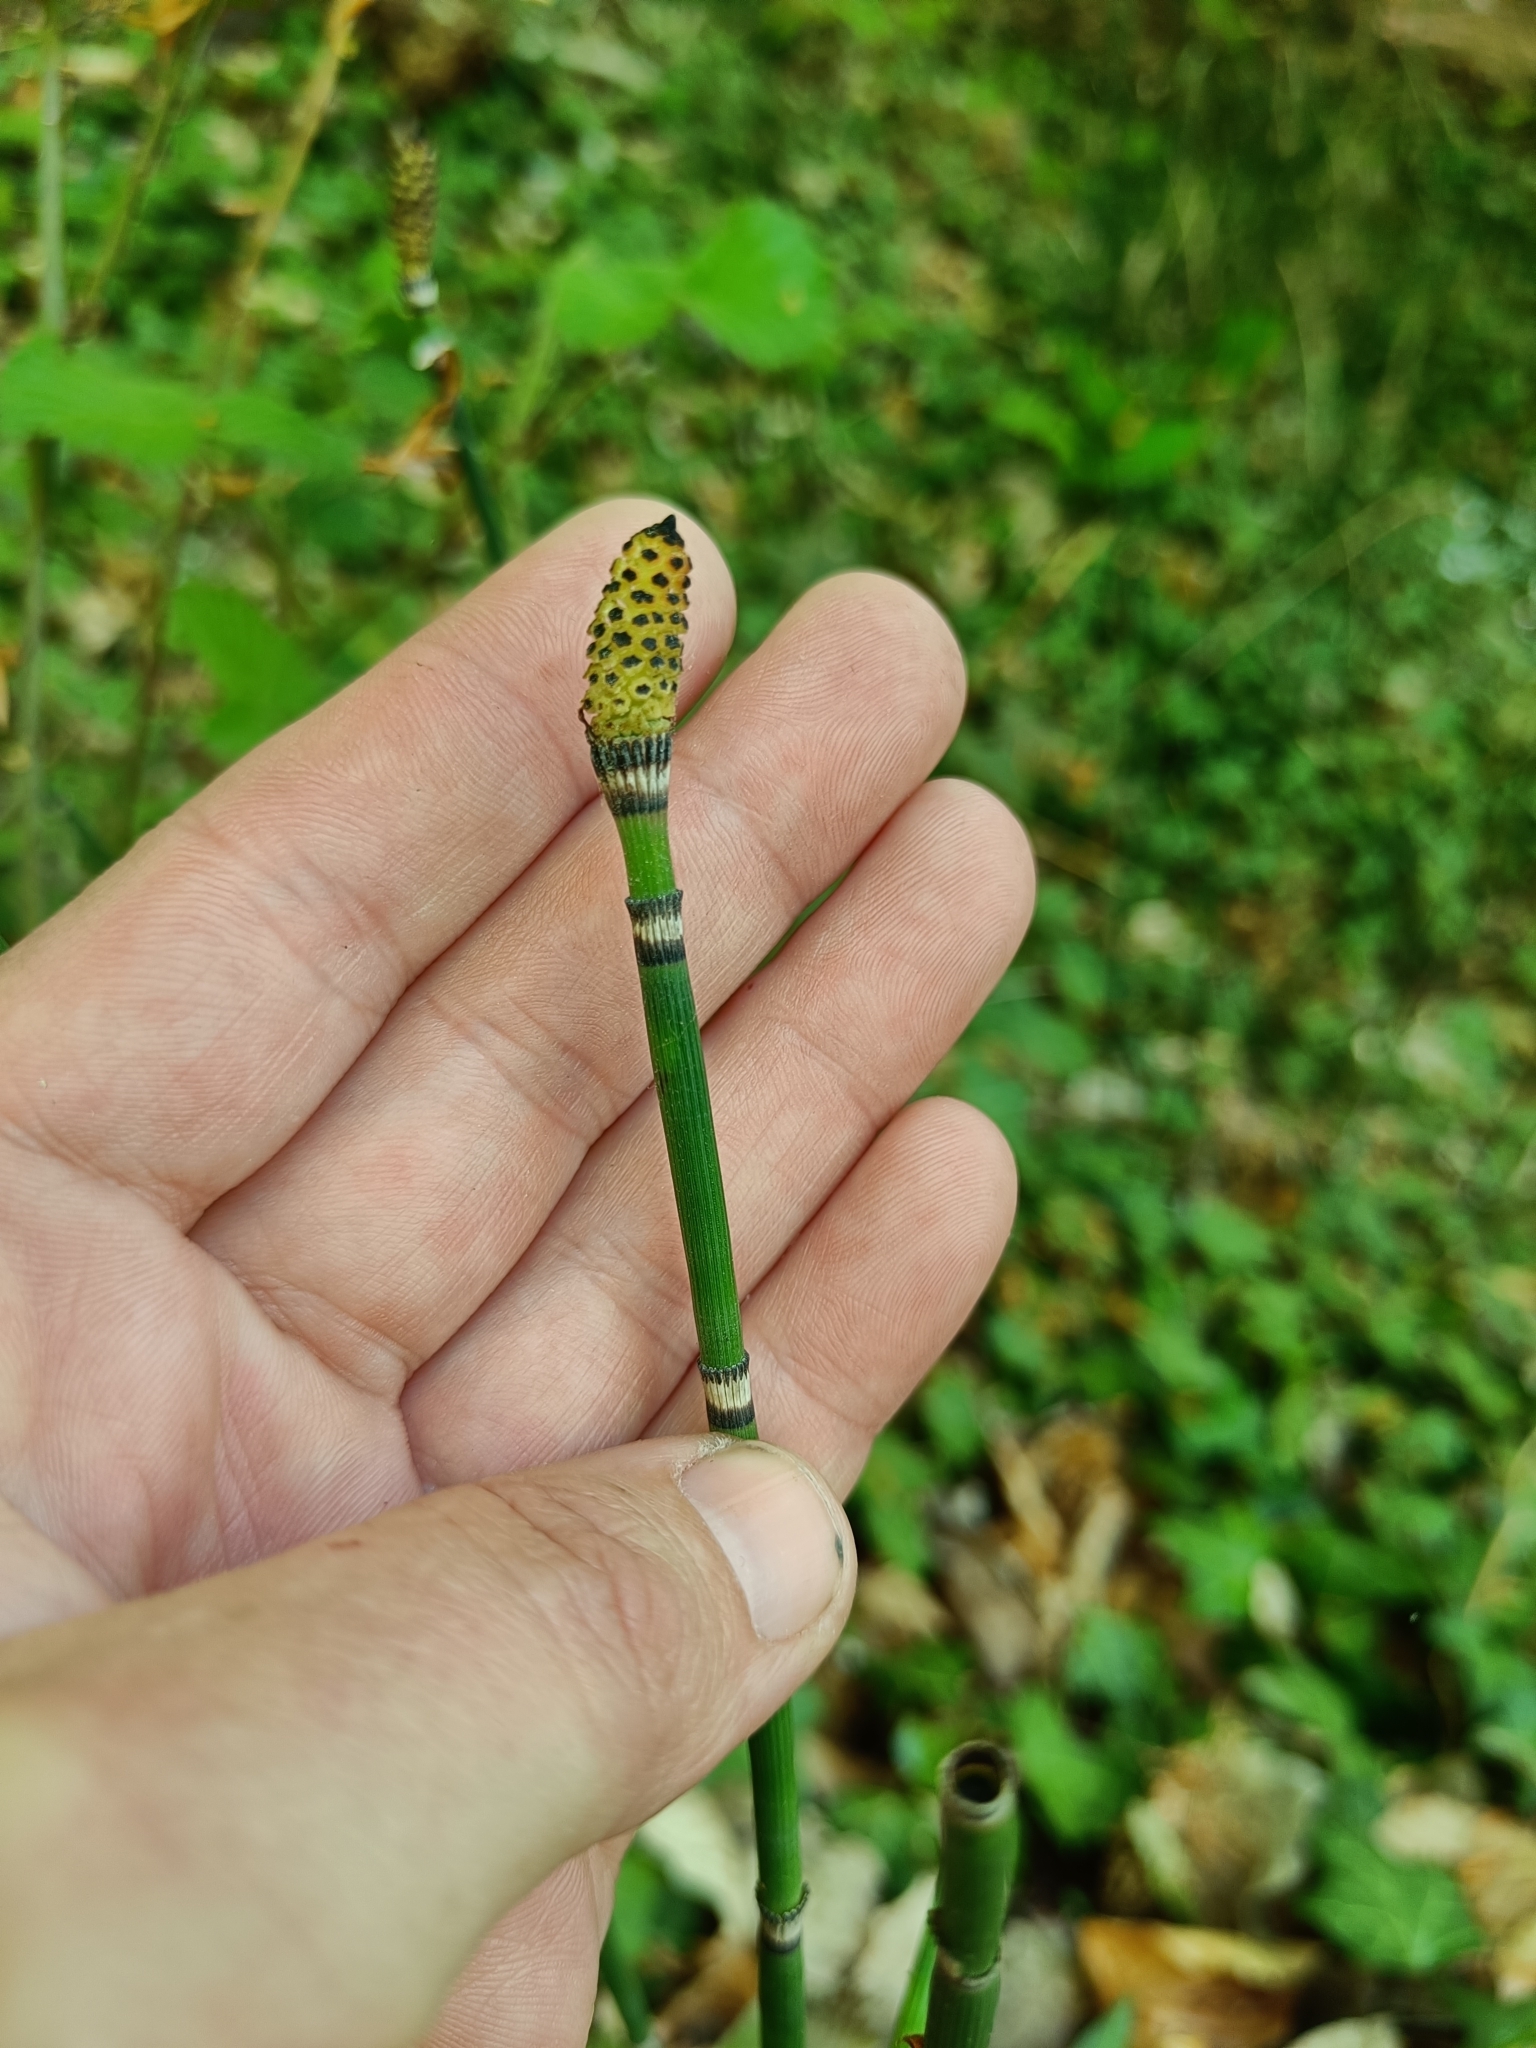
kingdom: Plantae
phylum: Tracheophyta
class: Polypodiopsida
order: Equisetales
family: Equisetaceae
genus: Equisetum
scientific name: Equisetum hyemale
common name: Rough horsetail
